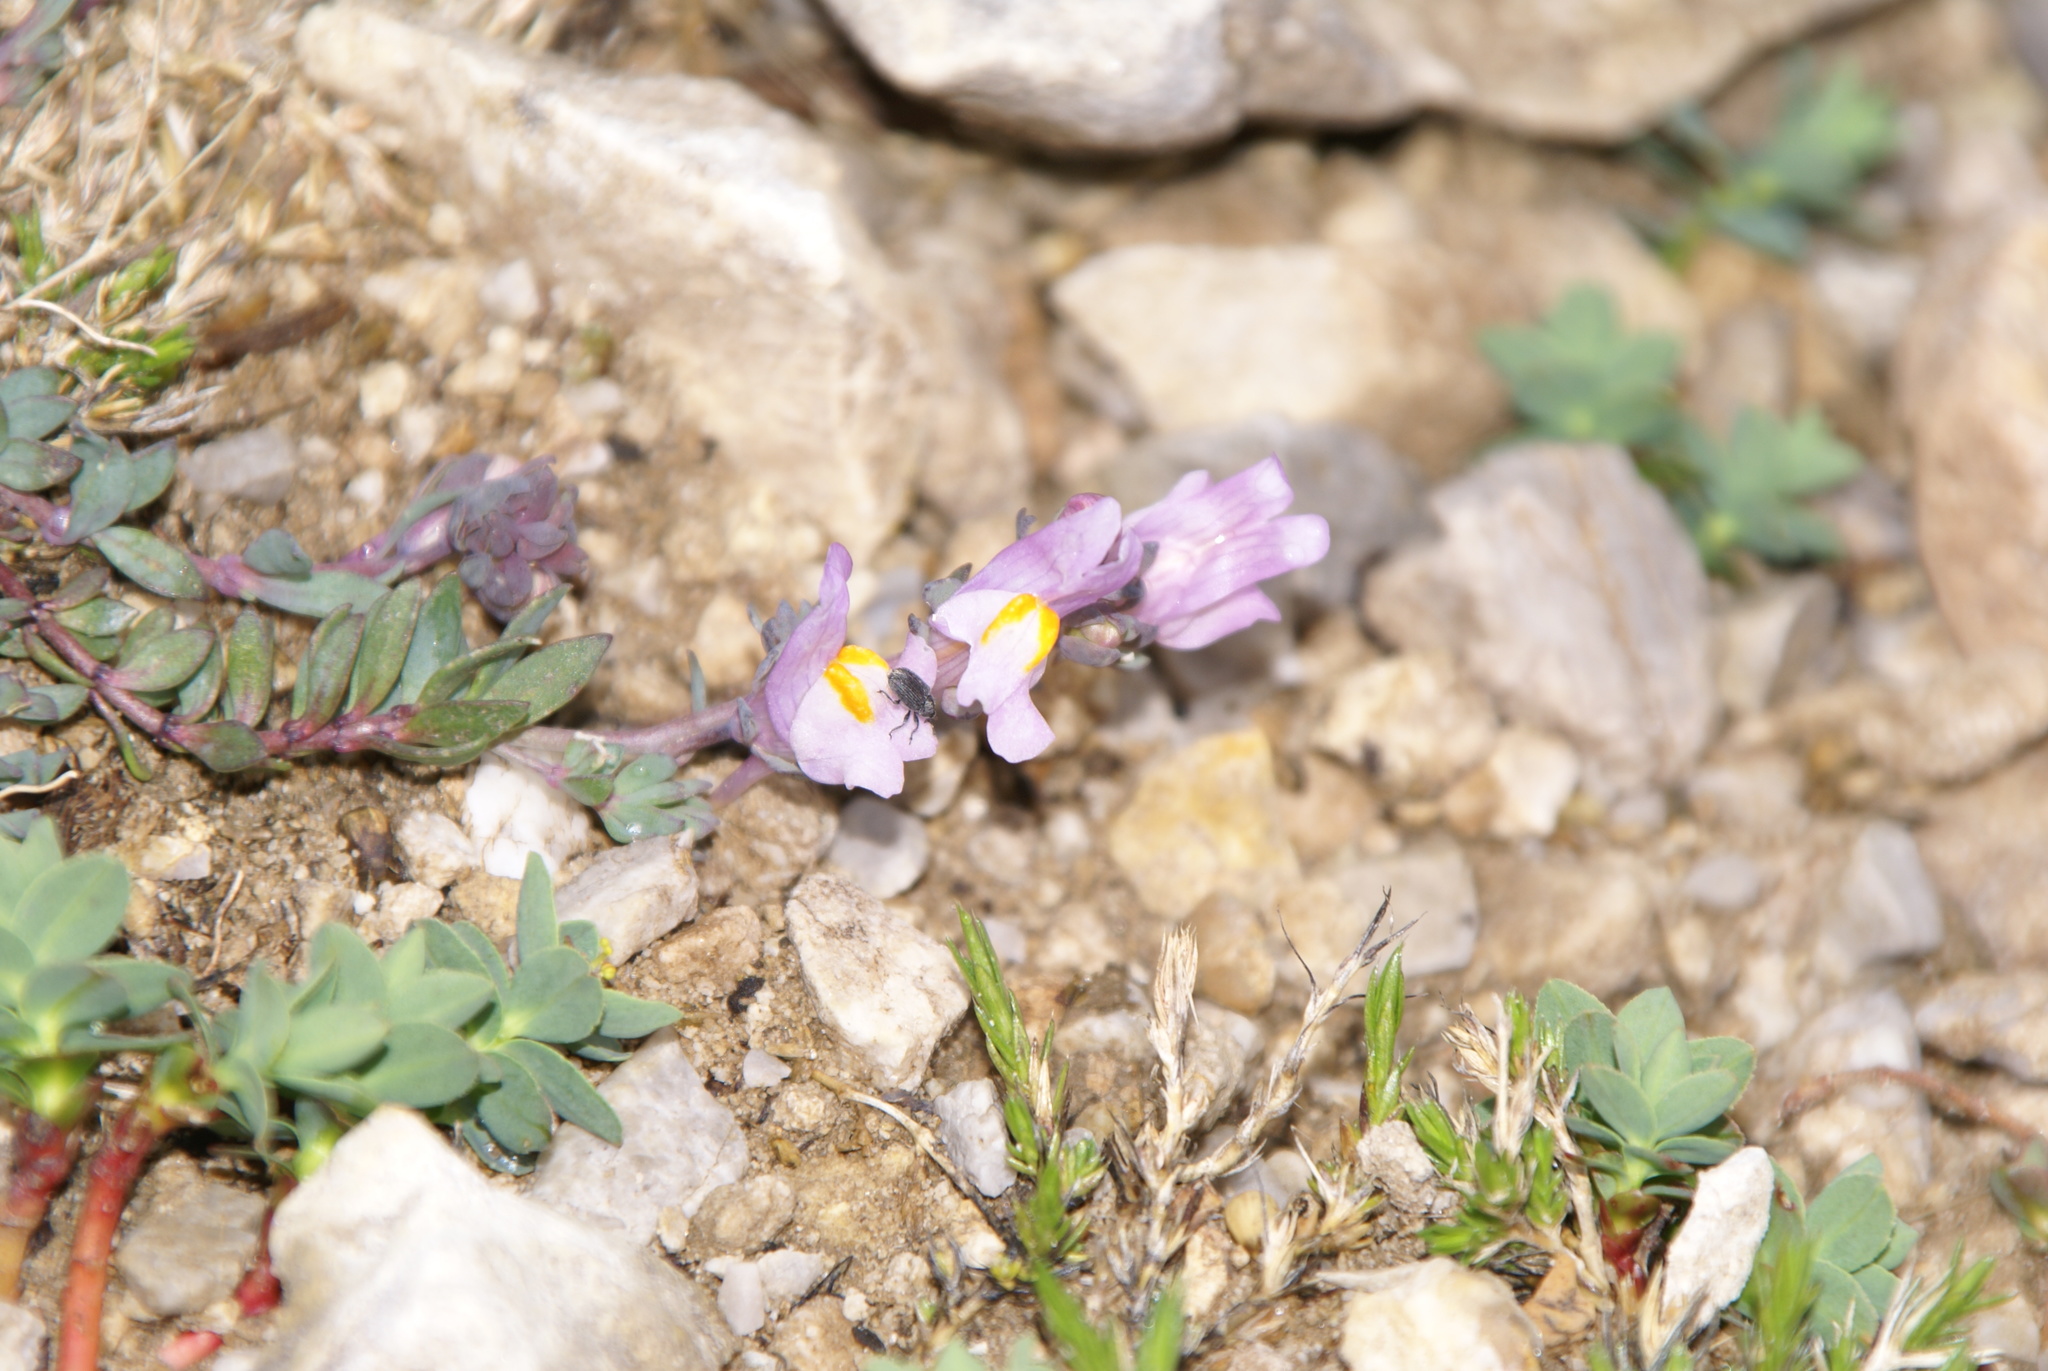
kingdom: Plantae
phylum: Tracheophyta
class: Magnoliopsida
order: Lamiales
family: Plantaginaceae
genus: Linaria
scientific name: Linaria alpina
